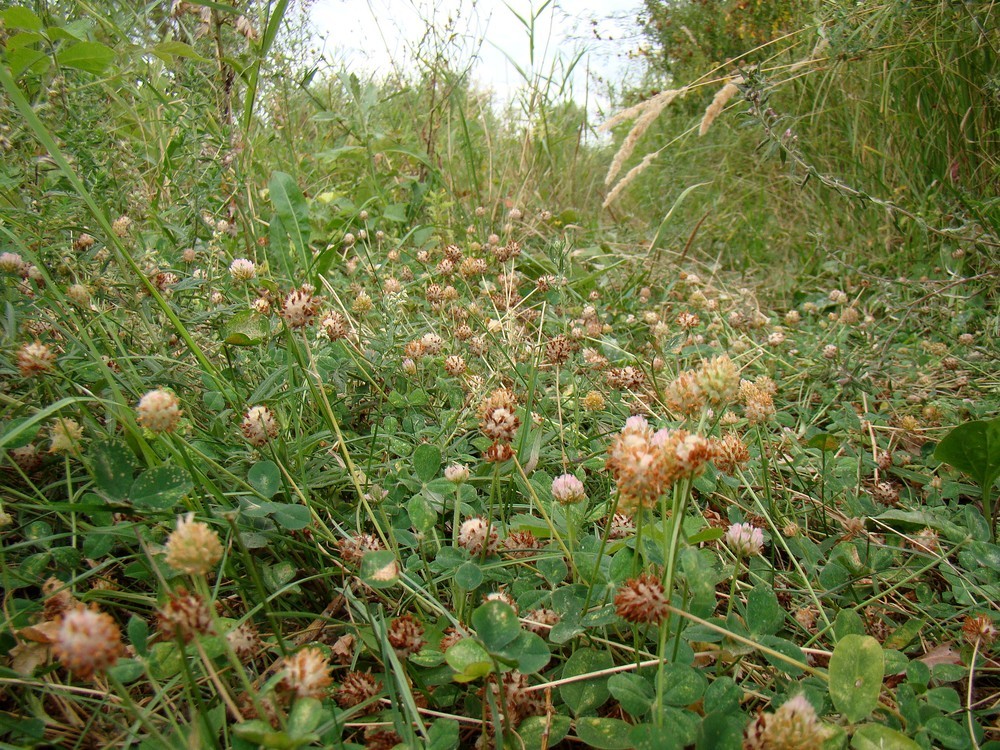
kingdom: Plantae
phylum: Tracheophyta
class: Magnoliopsida
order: Fabales
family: Fabaceae
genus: Trifolium
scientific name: Trifolium fragiferum
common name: Strawberry clover
